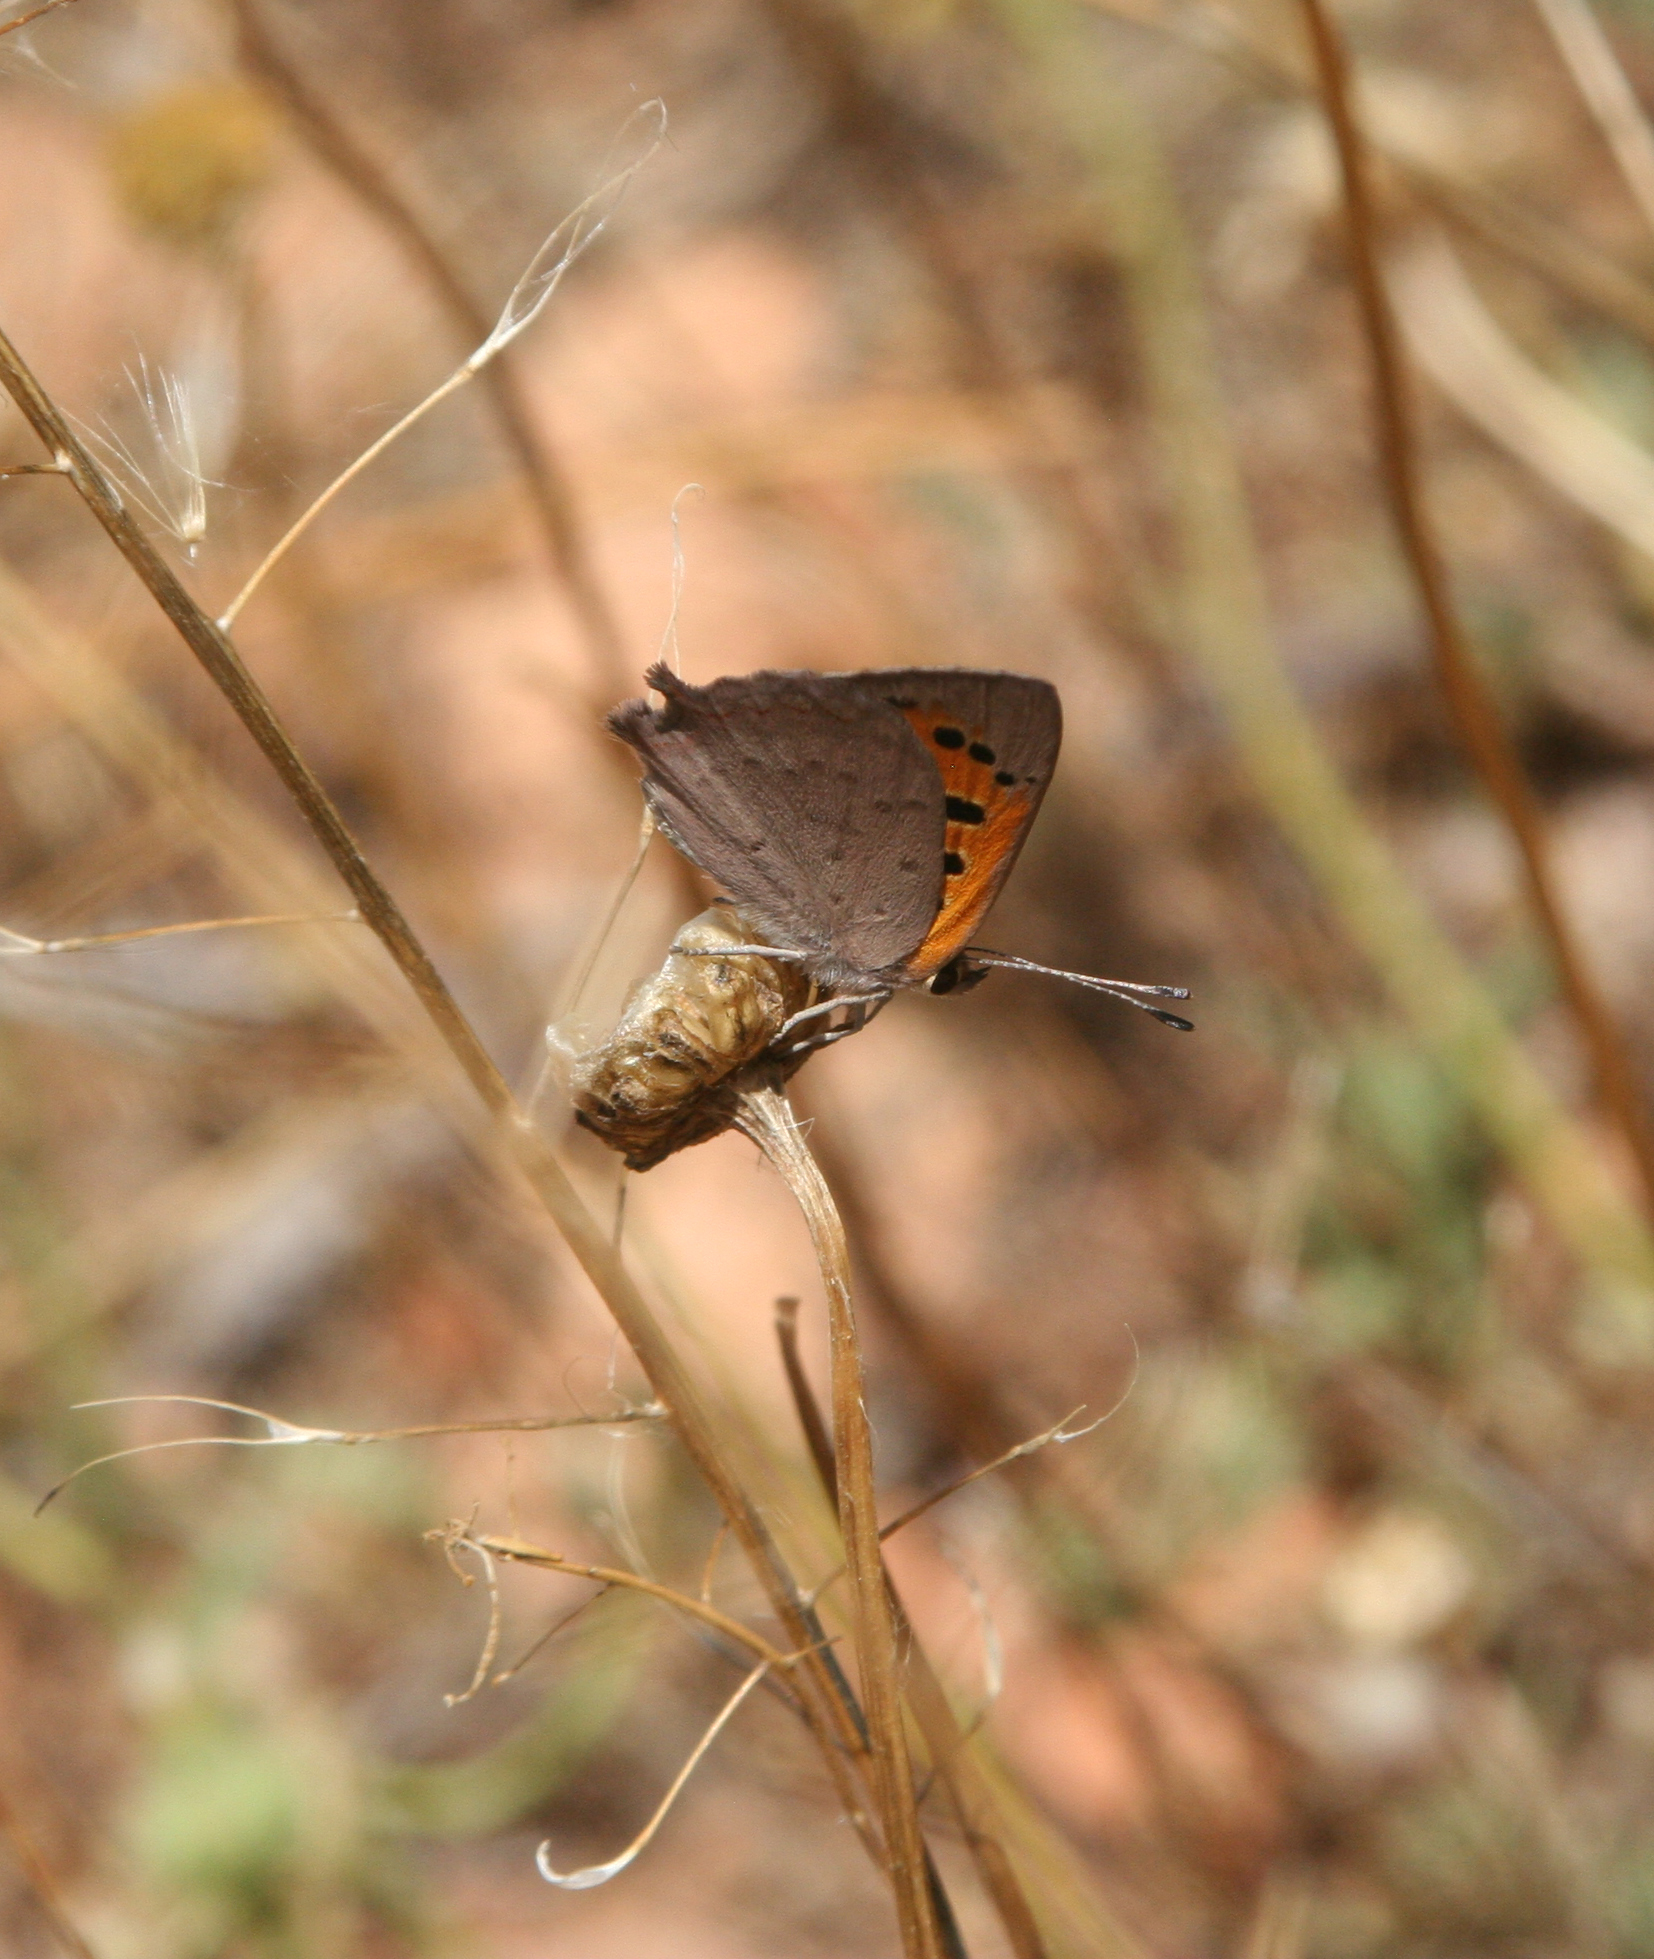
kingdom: Animalia
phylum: Arthropoda
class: Insecta
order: Lepidoptera
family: Lycaenidae
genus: Lycaena
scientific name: Lycaena phlaeas
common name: Small copper
